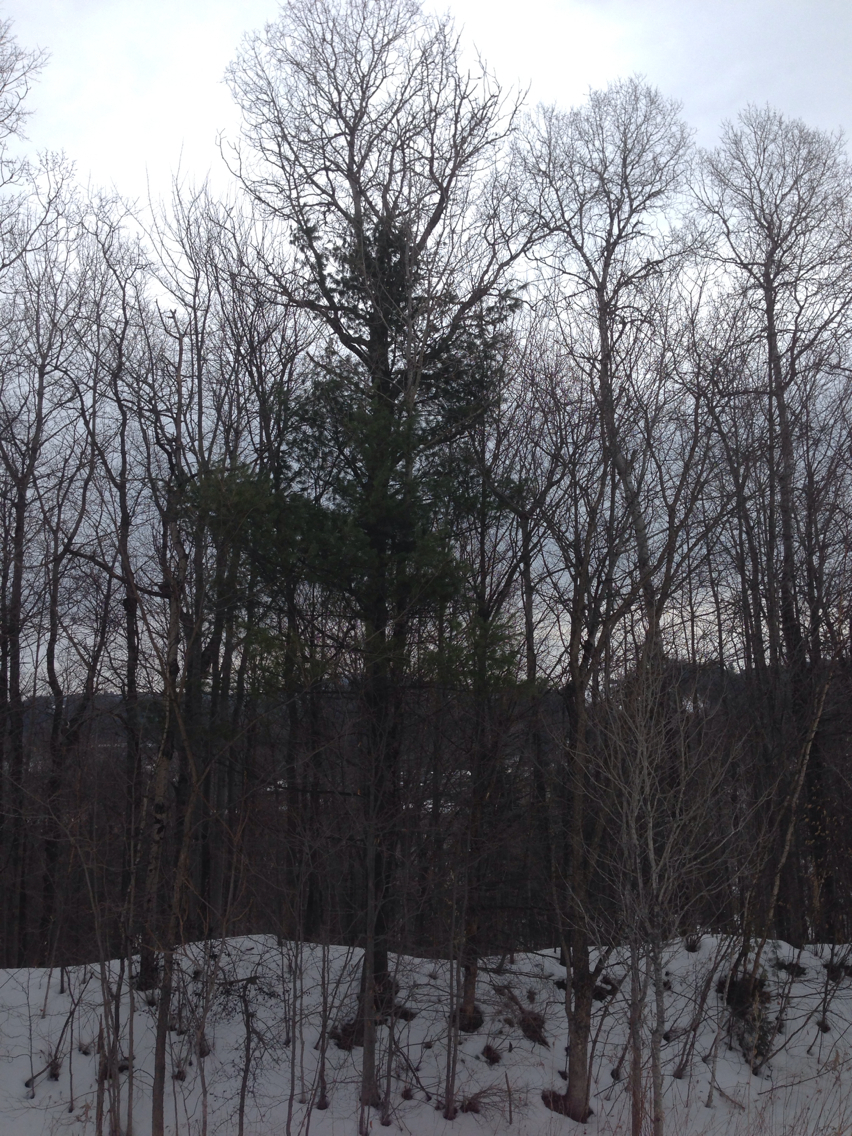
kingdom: Plantae
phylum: Tracheophyta
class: Pinopsida
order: Pinales
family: Pinaceae
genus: Pinus
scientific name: Pinus strobus
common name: Weymouth pine
